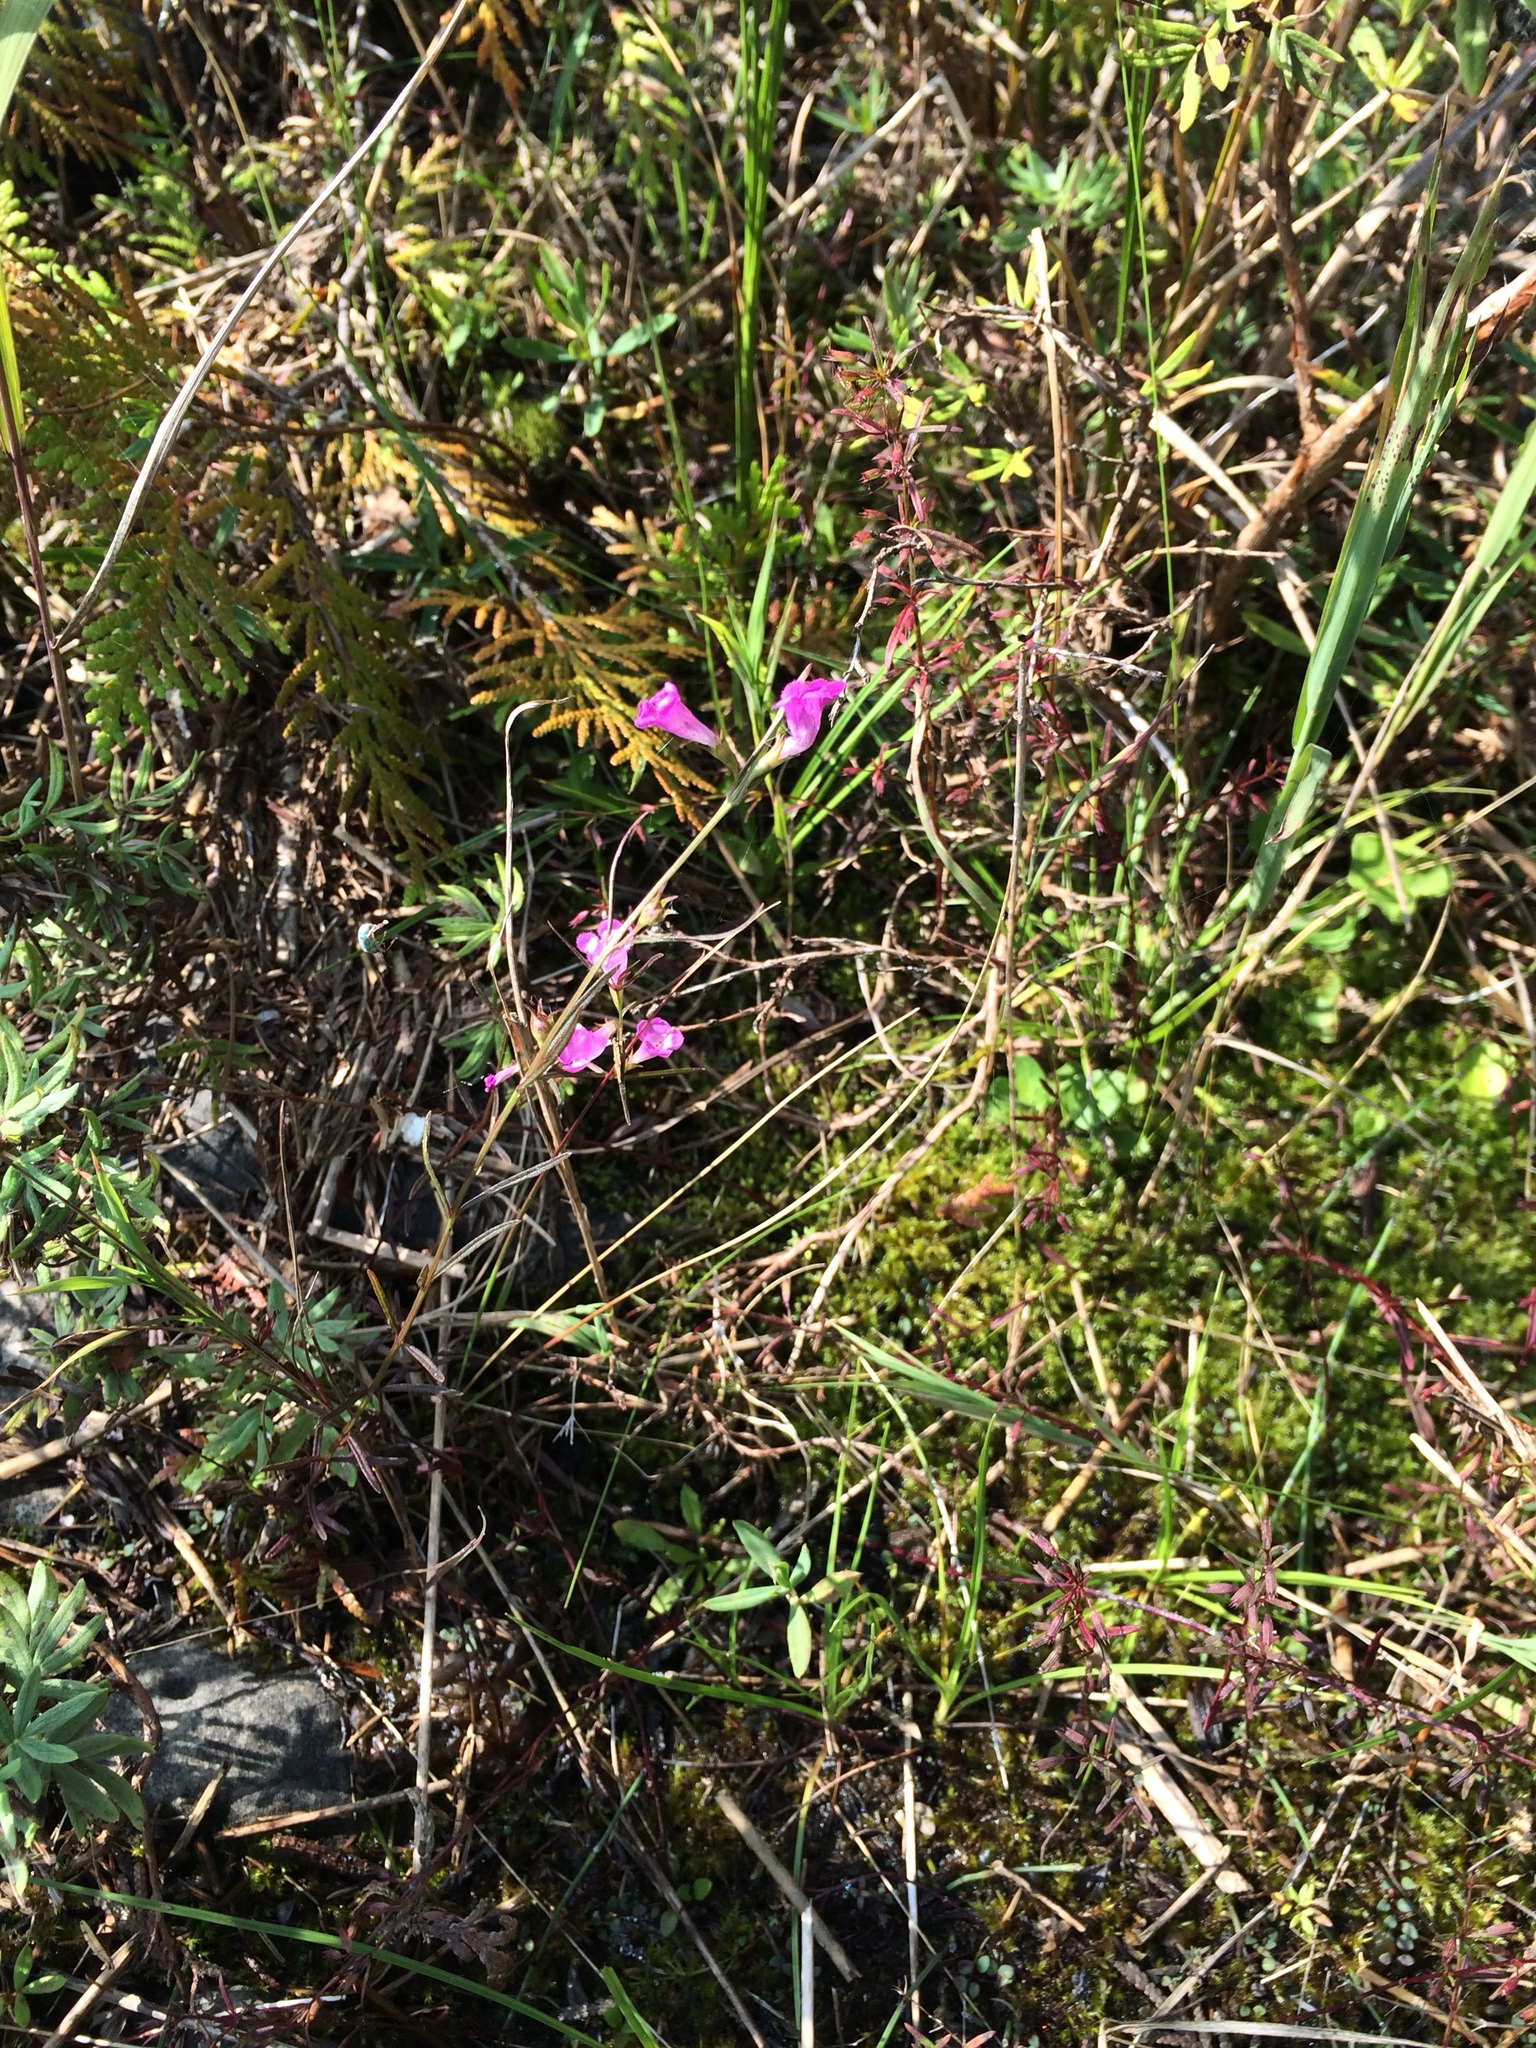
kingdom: Plantae
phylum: Tracheophyta
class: Magnoliopsida
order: Lamiales
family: Orobanchaceae
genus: Agalinis
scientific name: Agalinis purpurea
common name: Purple false foxglove
